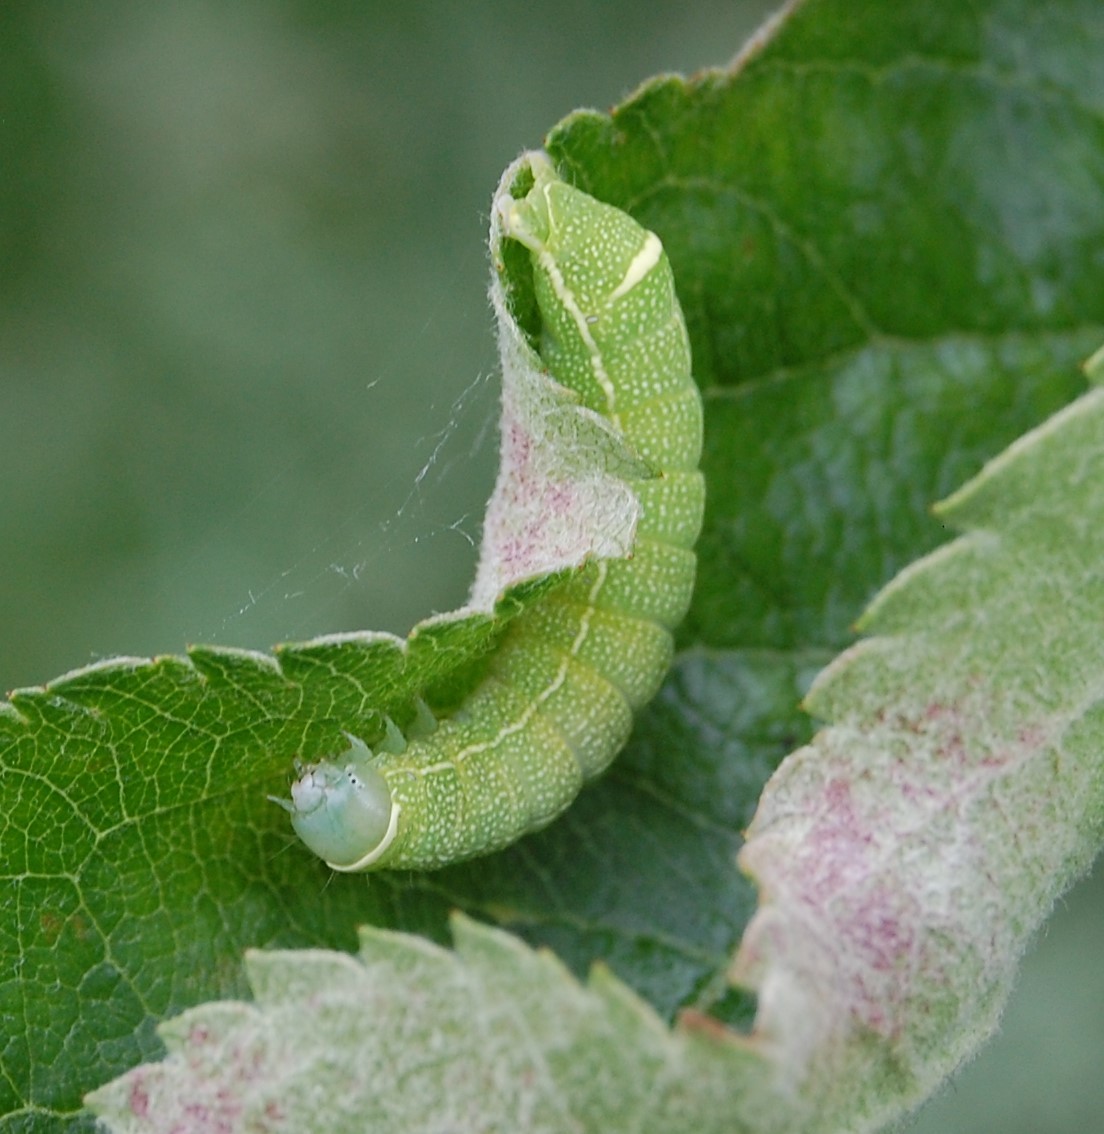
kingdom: Animalia
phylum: Arthropoda
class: Insecta
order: Lepidoptera
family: Noctuidae
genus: Orthosia
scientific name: Orthosia cerasi
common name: Common quaker
